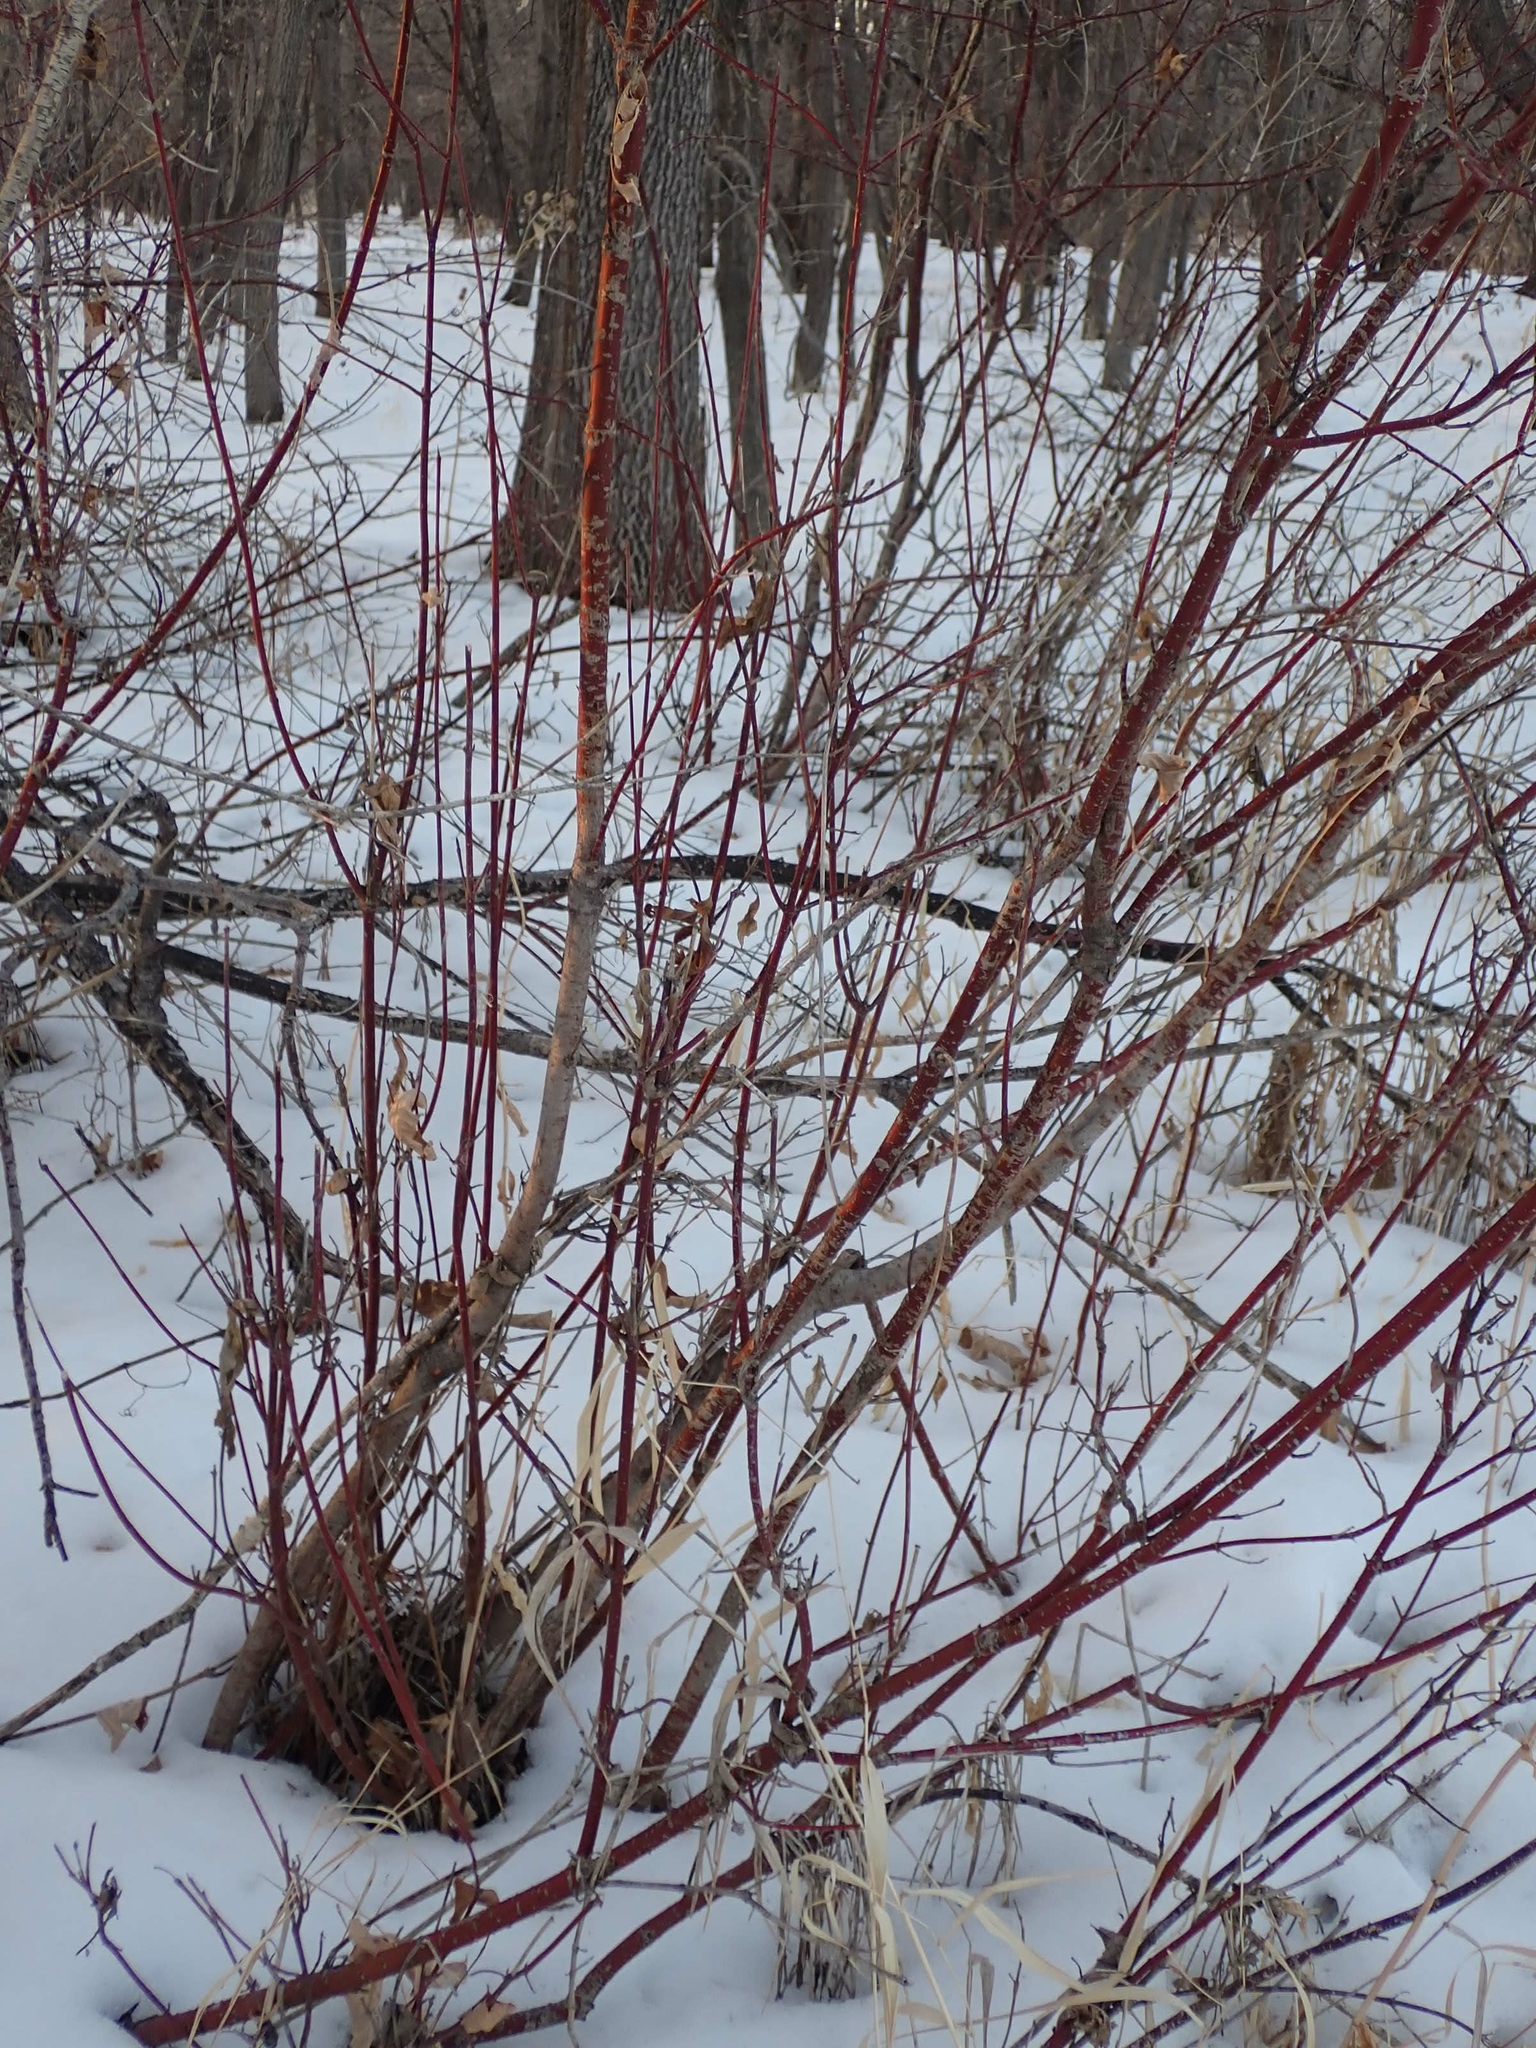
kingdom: Plantae
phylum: Tracheophyta
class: Magnoliopsida
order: Cornales
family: Cornaceae
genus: Cornus
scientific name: Cornus sericea
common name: Red-osier dogwood
